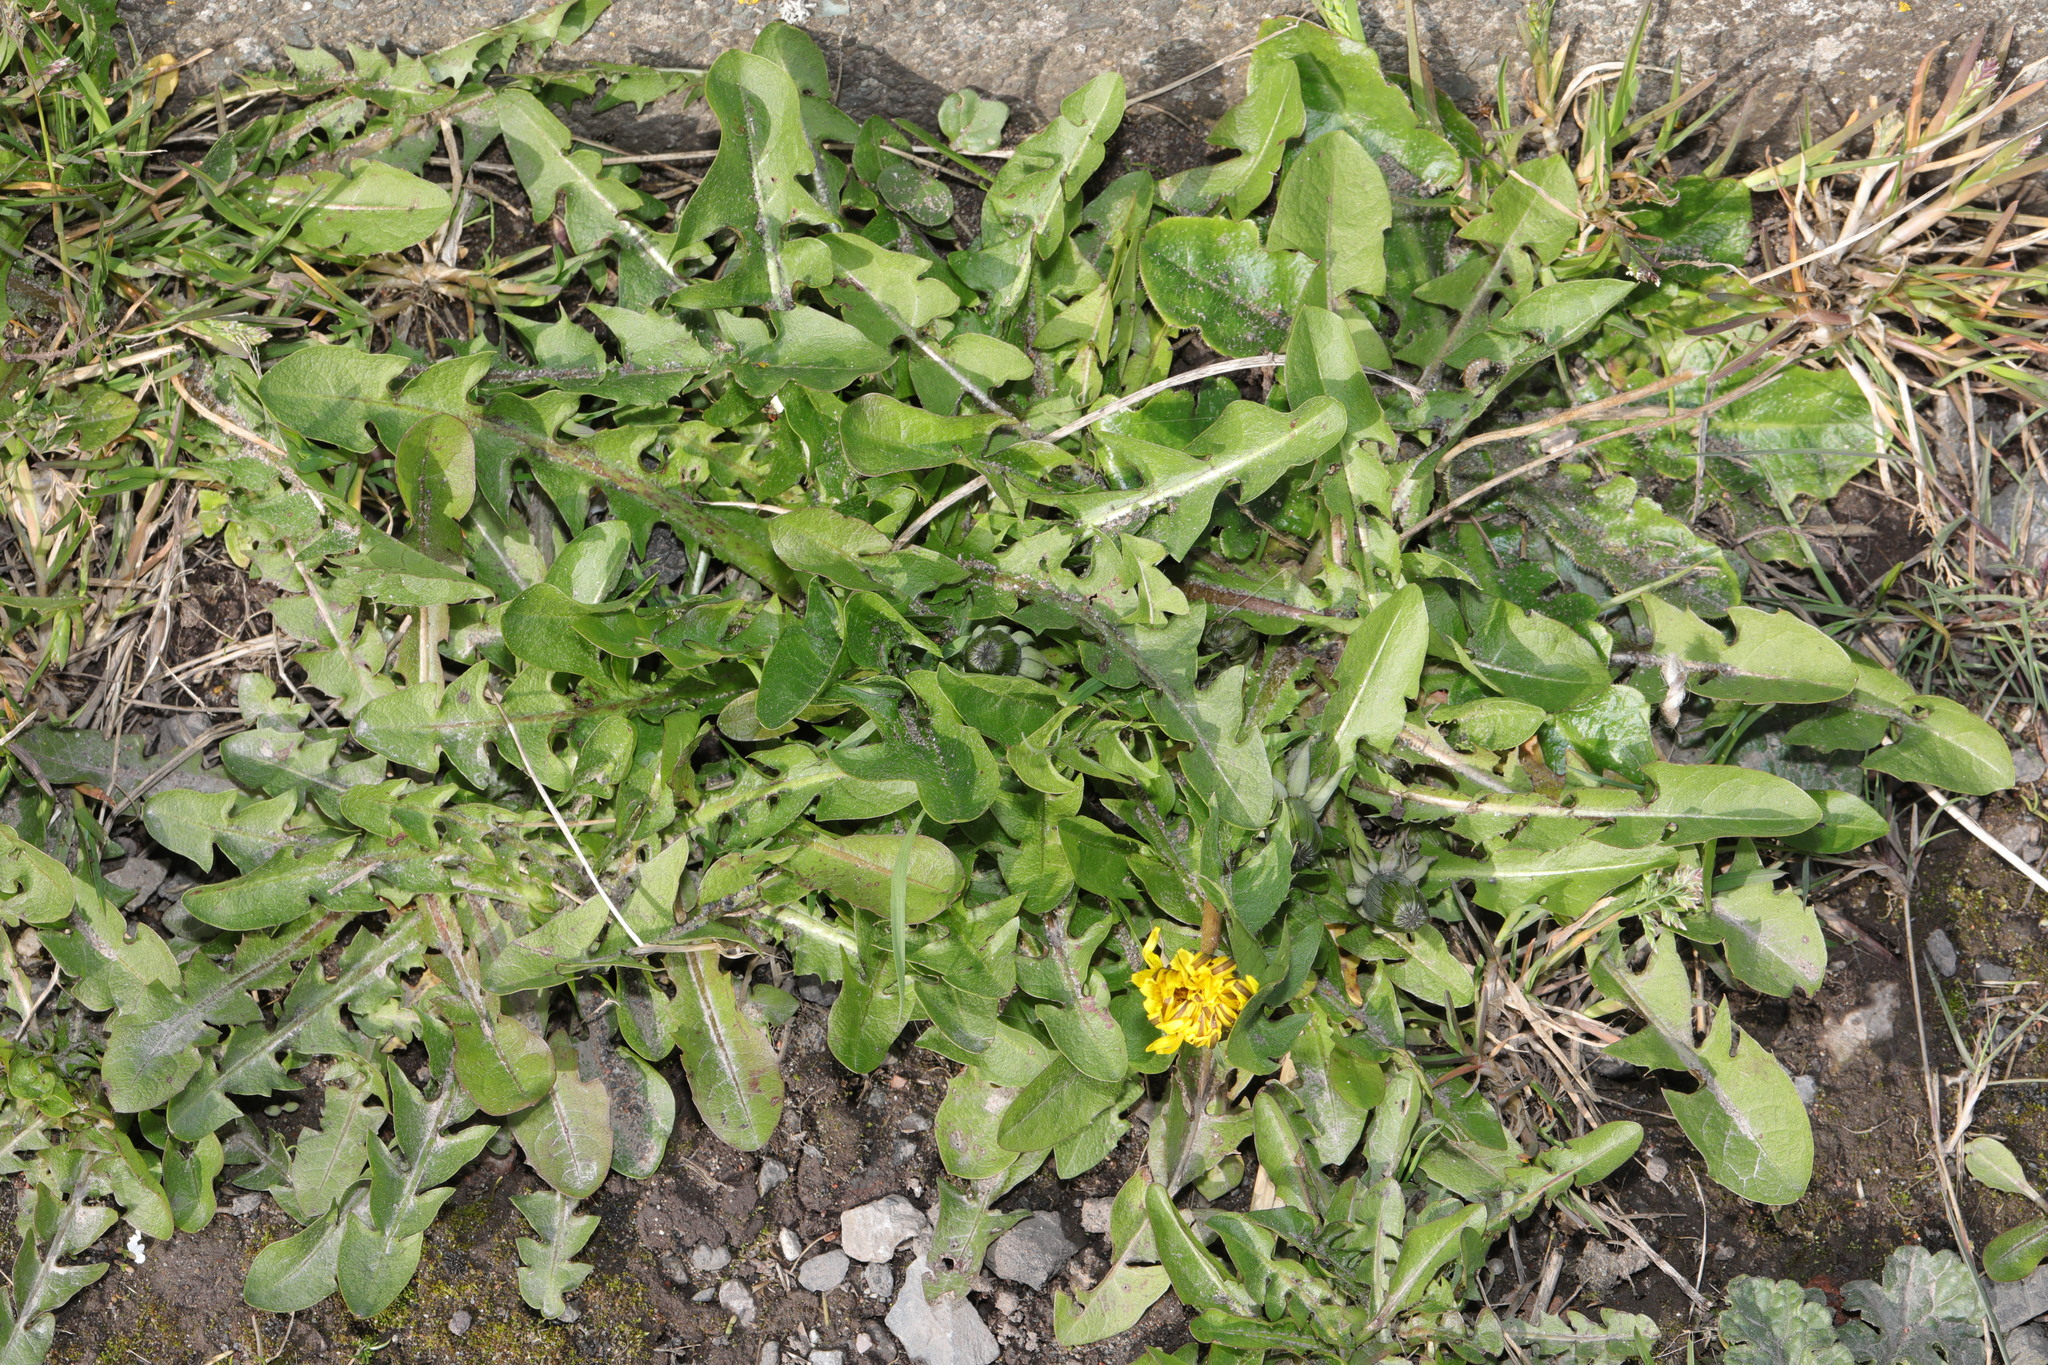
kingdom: Plantae
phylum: Tracheophyta
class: Magnoliopsida
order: Asterales
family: Asteraceae
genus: Taraxacum
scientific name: Taraxacum officinale
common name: Common dandelion
